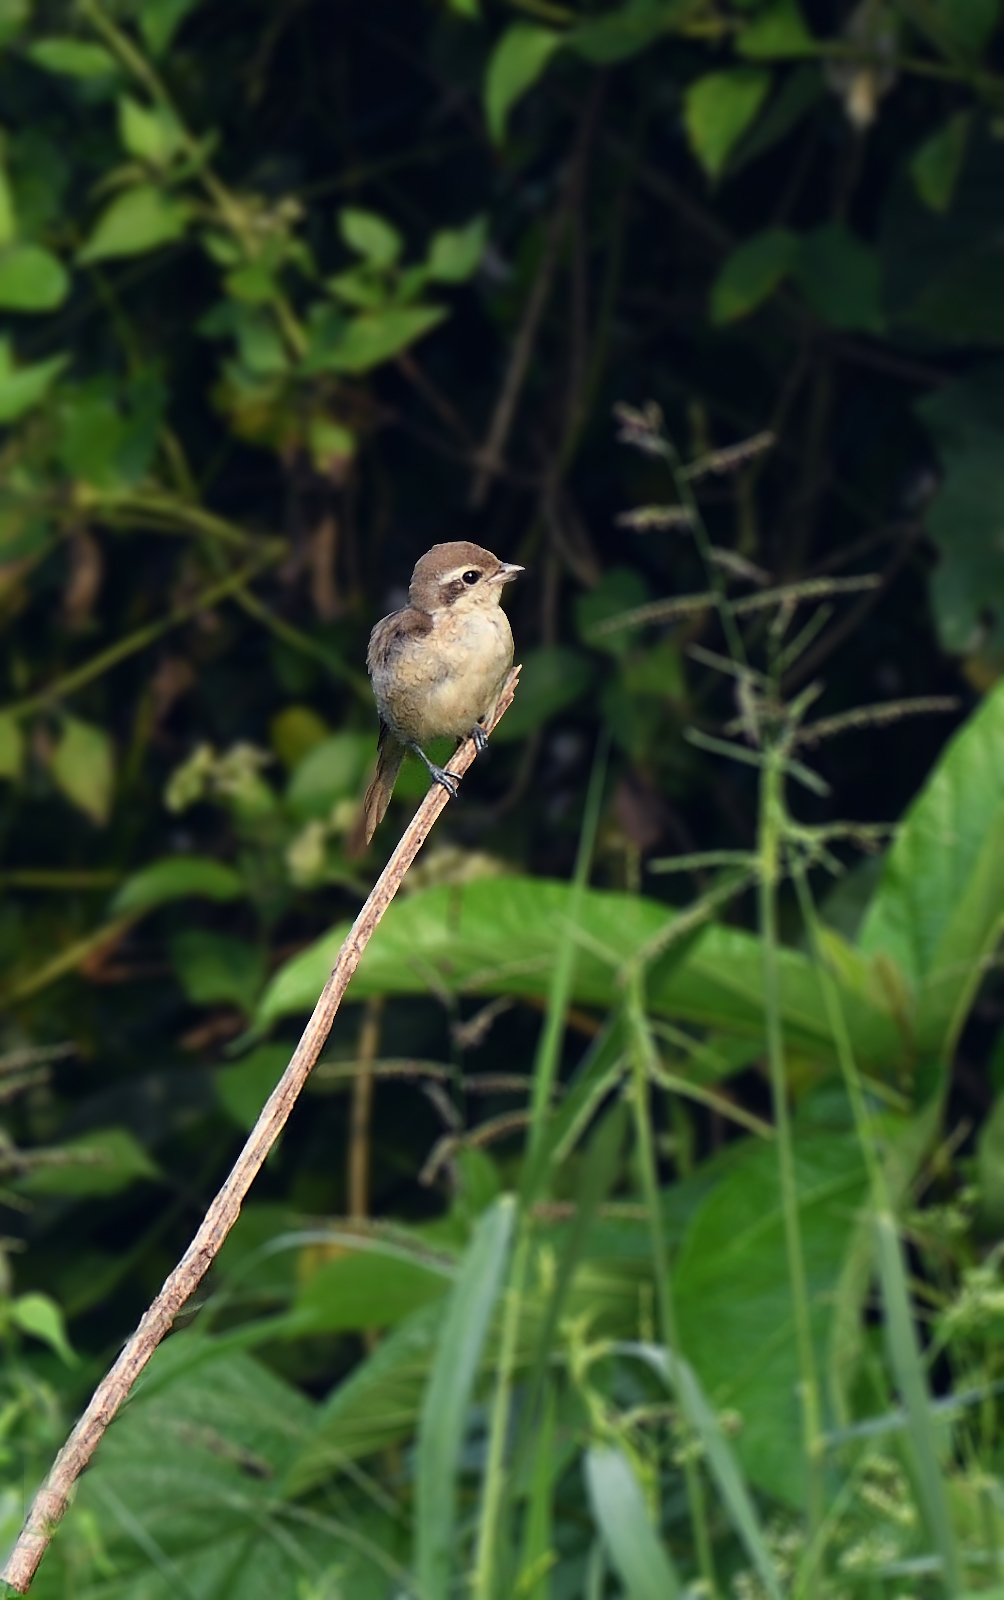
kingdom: Animalia
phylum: Chordata
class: Aves
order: Passeriformes
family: Laniidae
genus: Lanius
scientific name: Lanius cristatus
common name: Brown shrike
